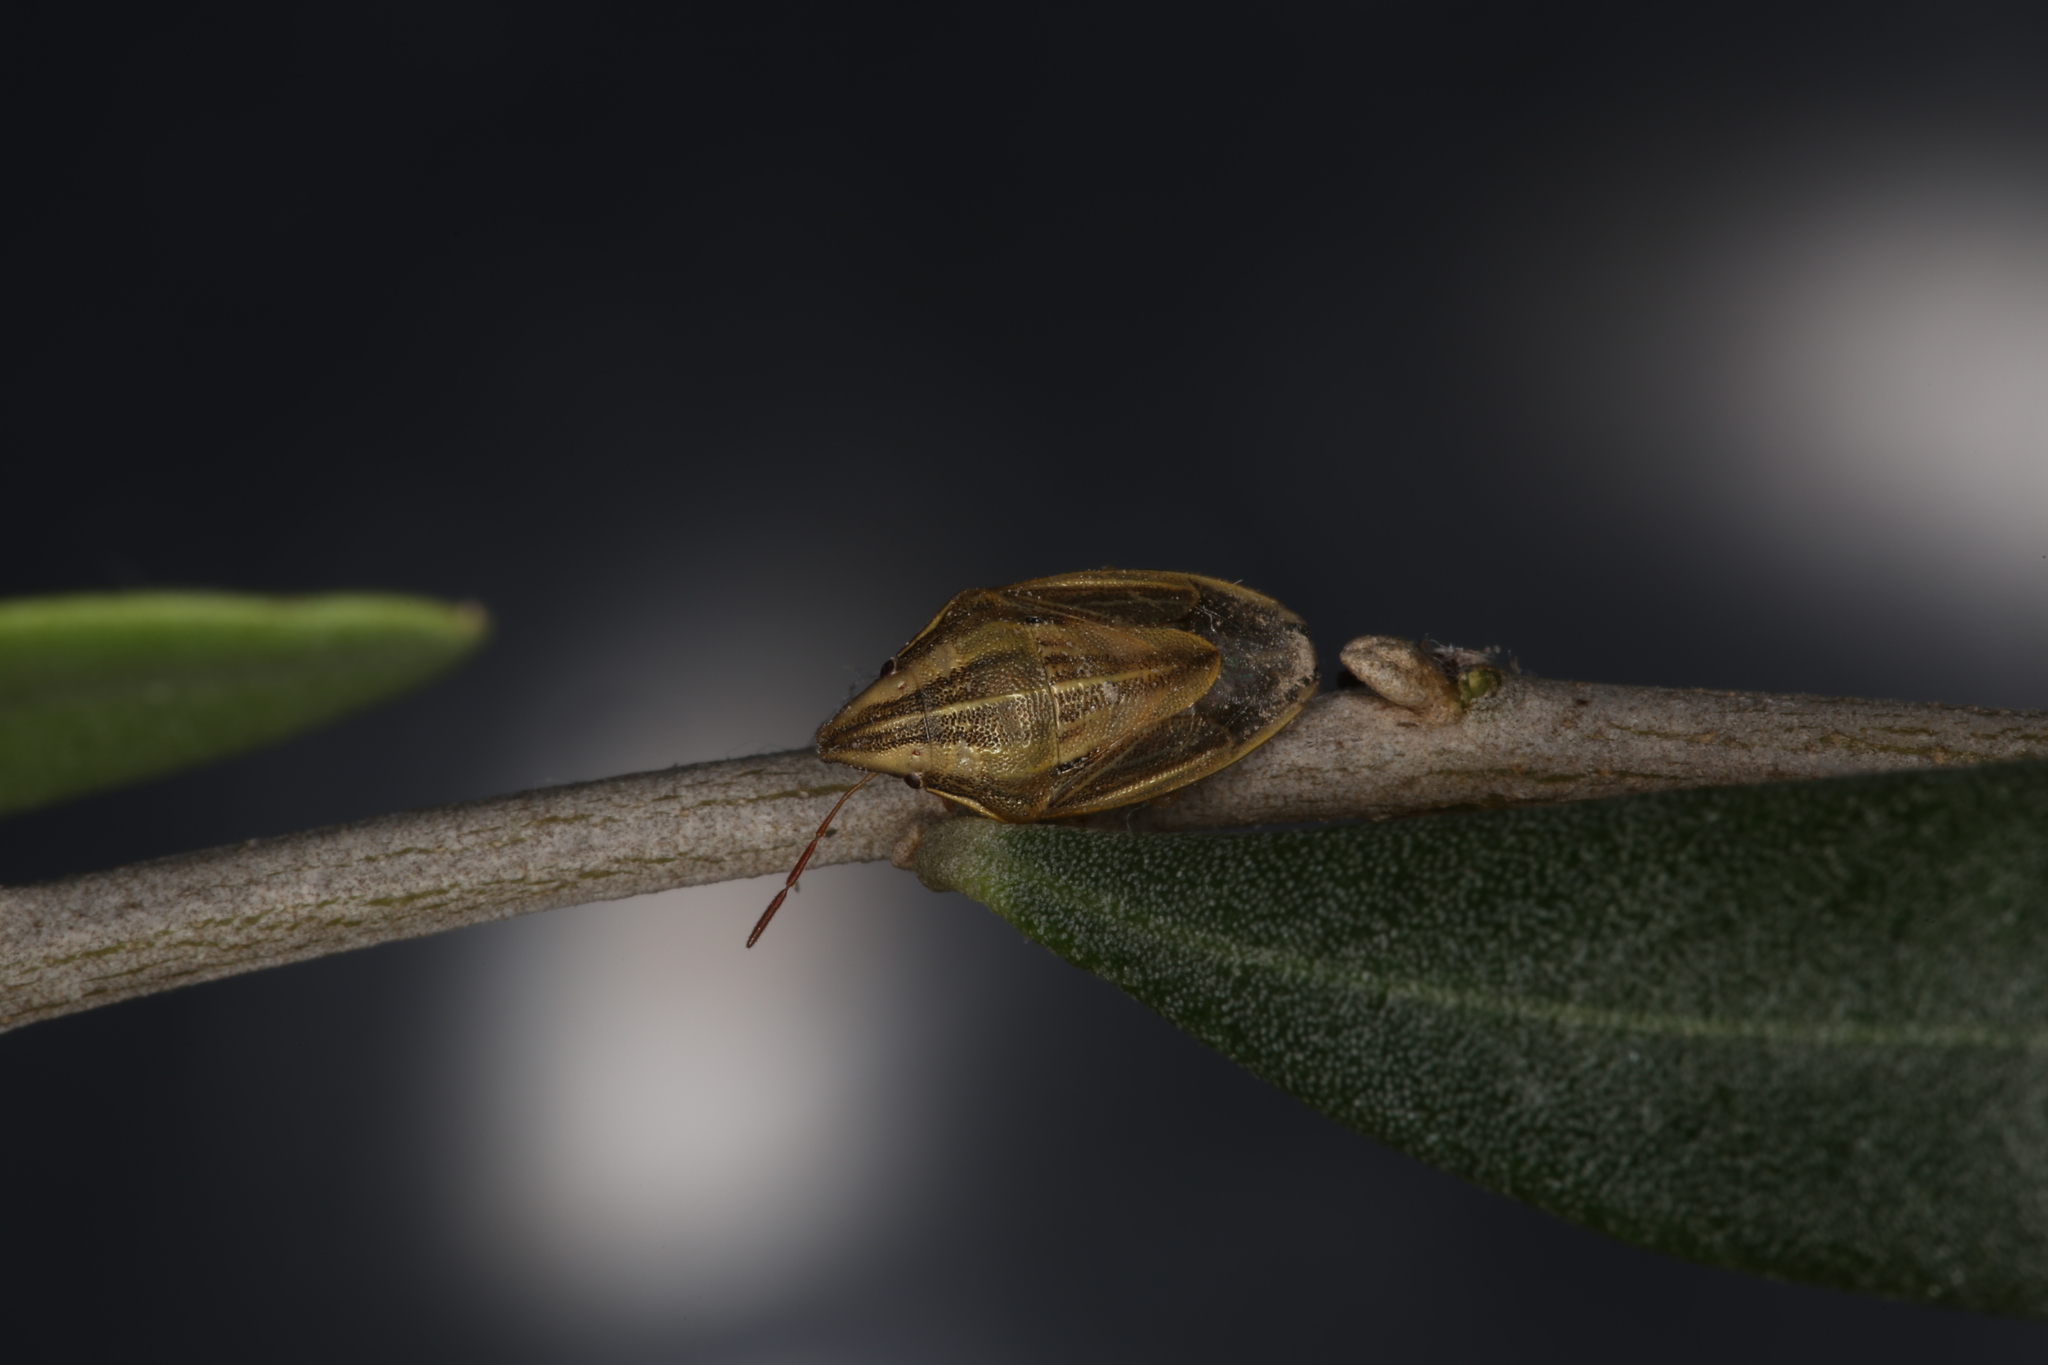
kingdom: Animalia
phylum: Arthropoda
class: Insecta
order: Hemiptera
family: Pentatomidae
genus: Aelia
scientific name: Aelia acuminata
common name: Bishop's mitre
